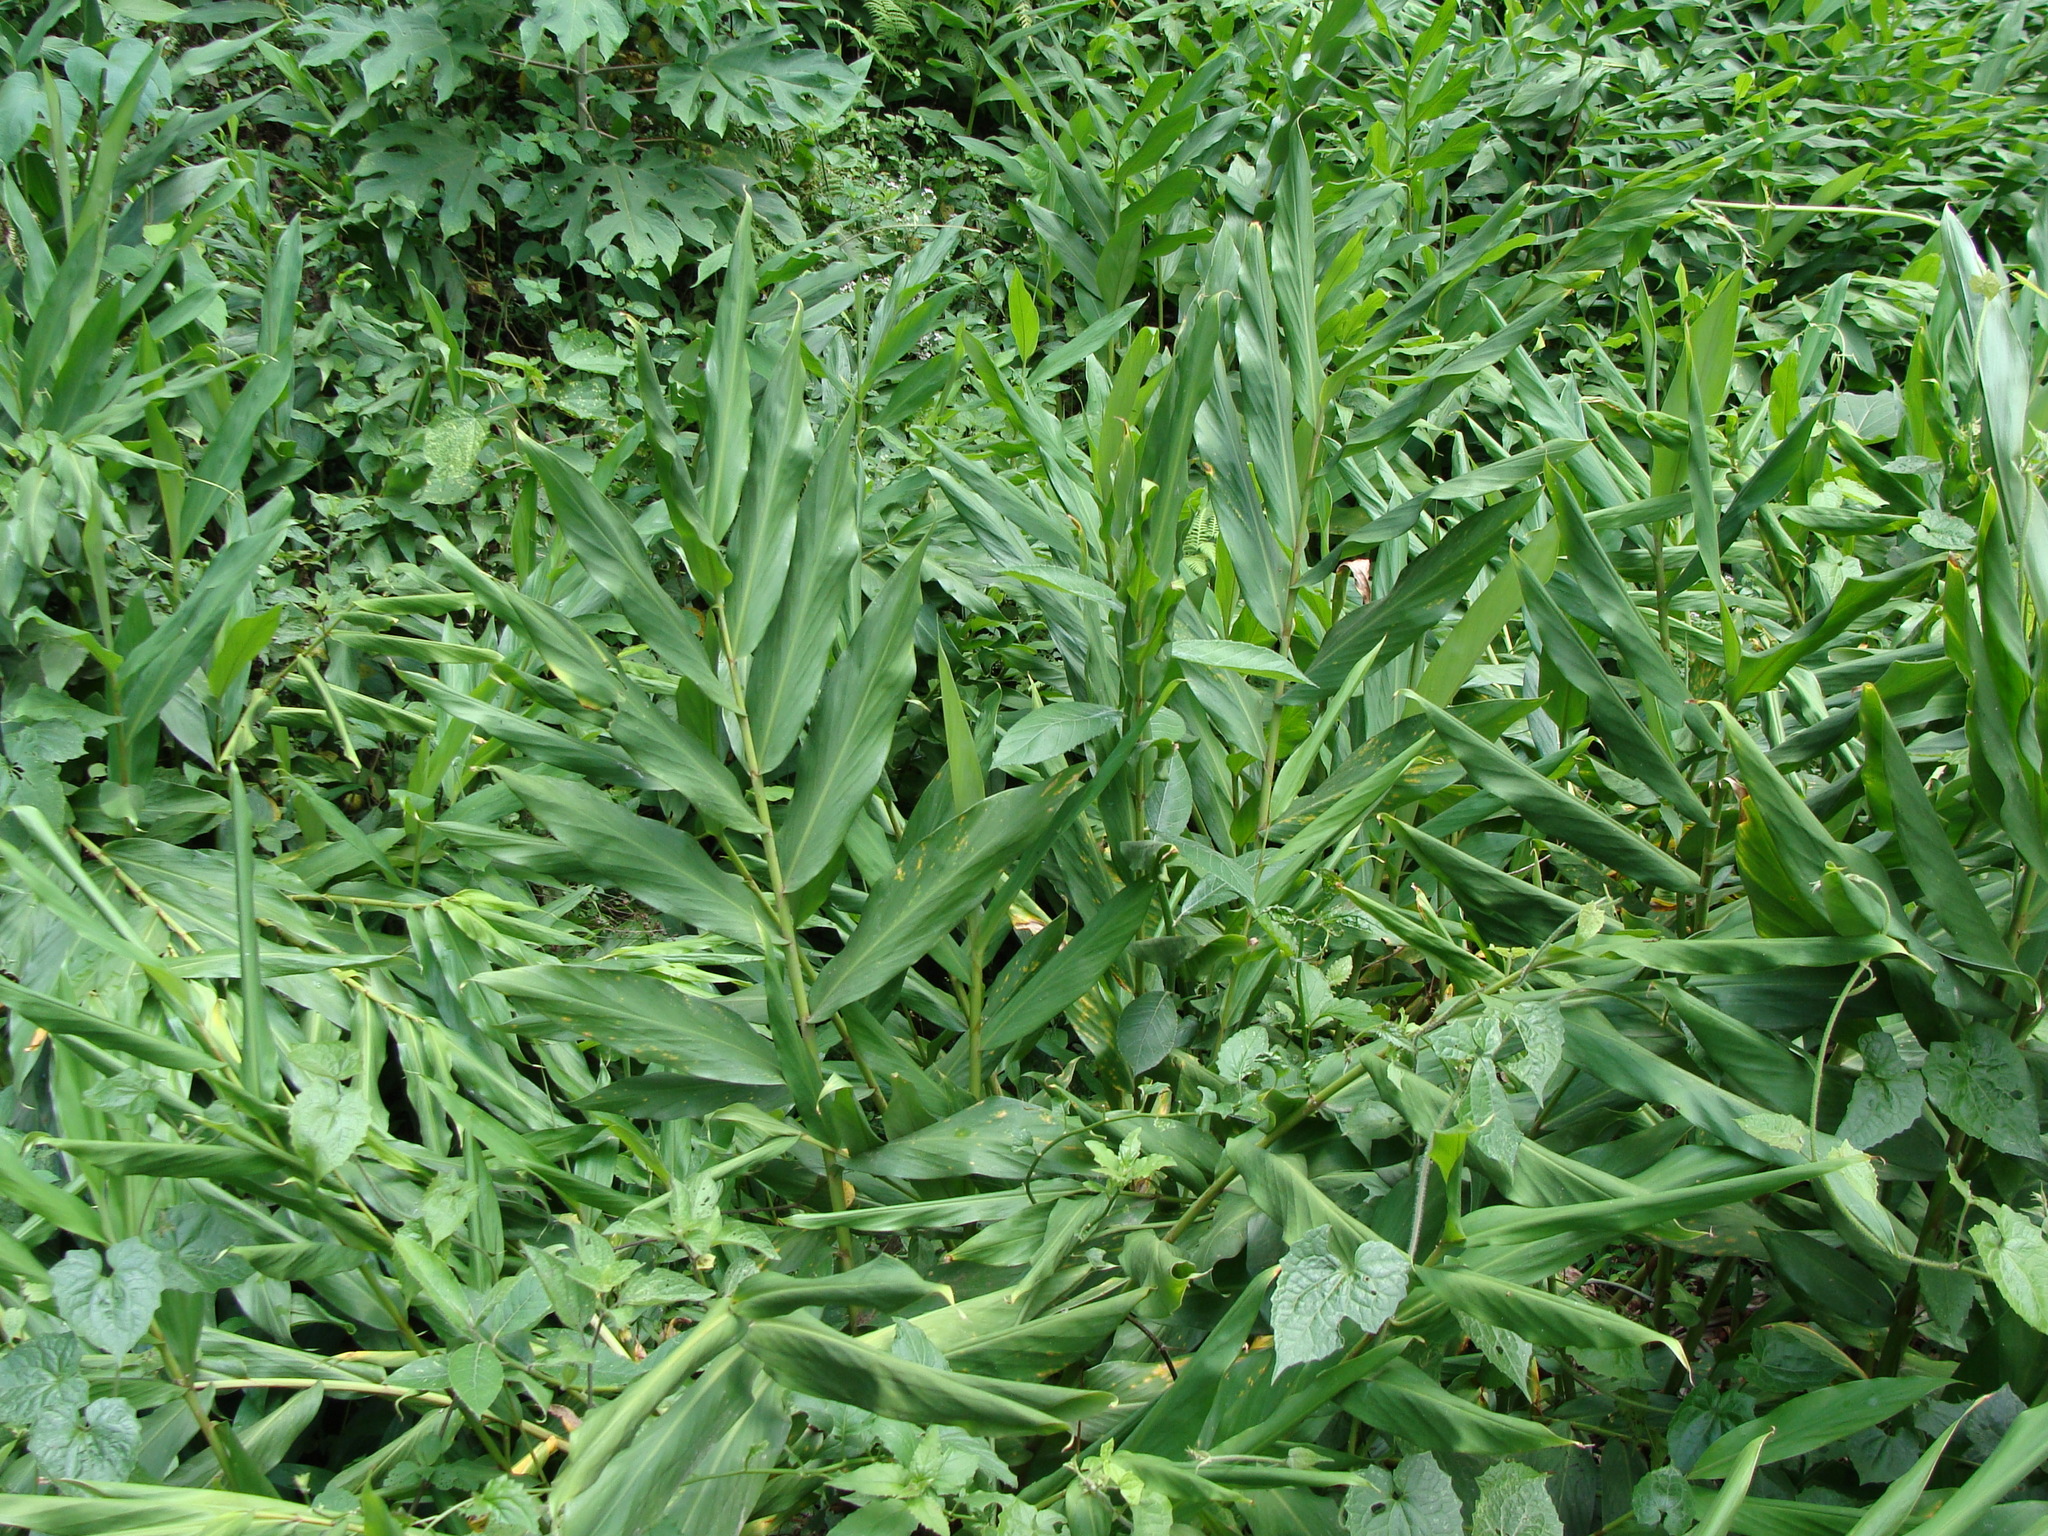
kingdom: Plantae
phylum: Tracheophyta
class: Liliopsida
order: Zingiberales
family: Zingiberaceae
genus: Hedychium
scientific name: Hedychium coronarium
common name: White garland-lily
